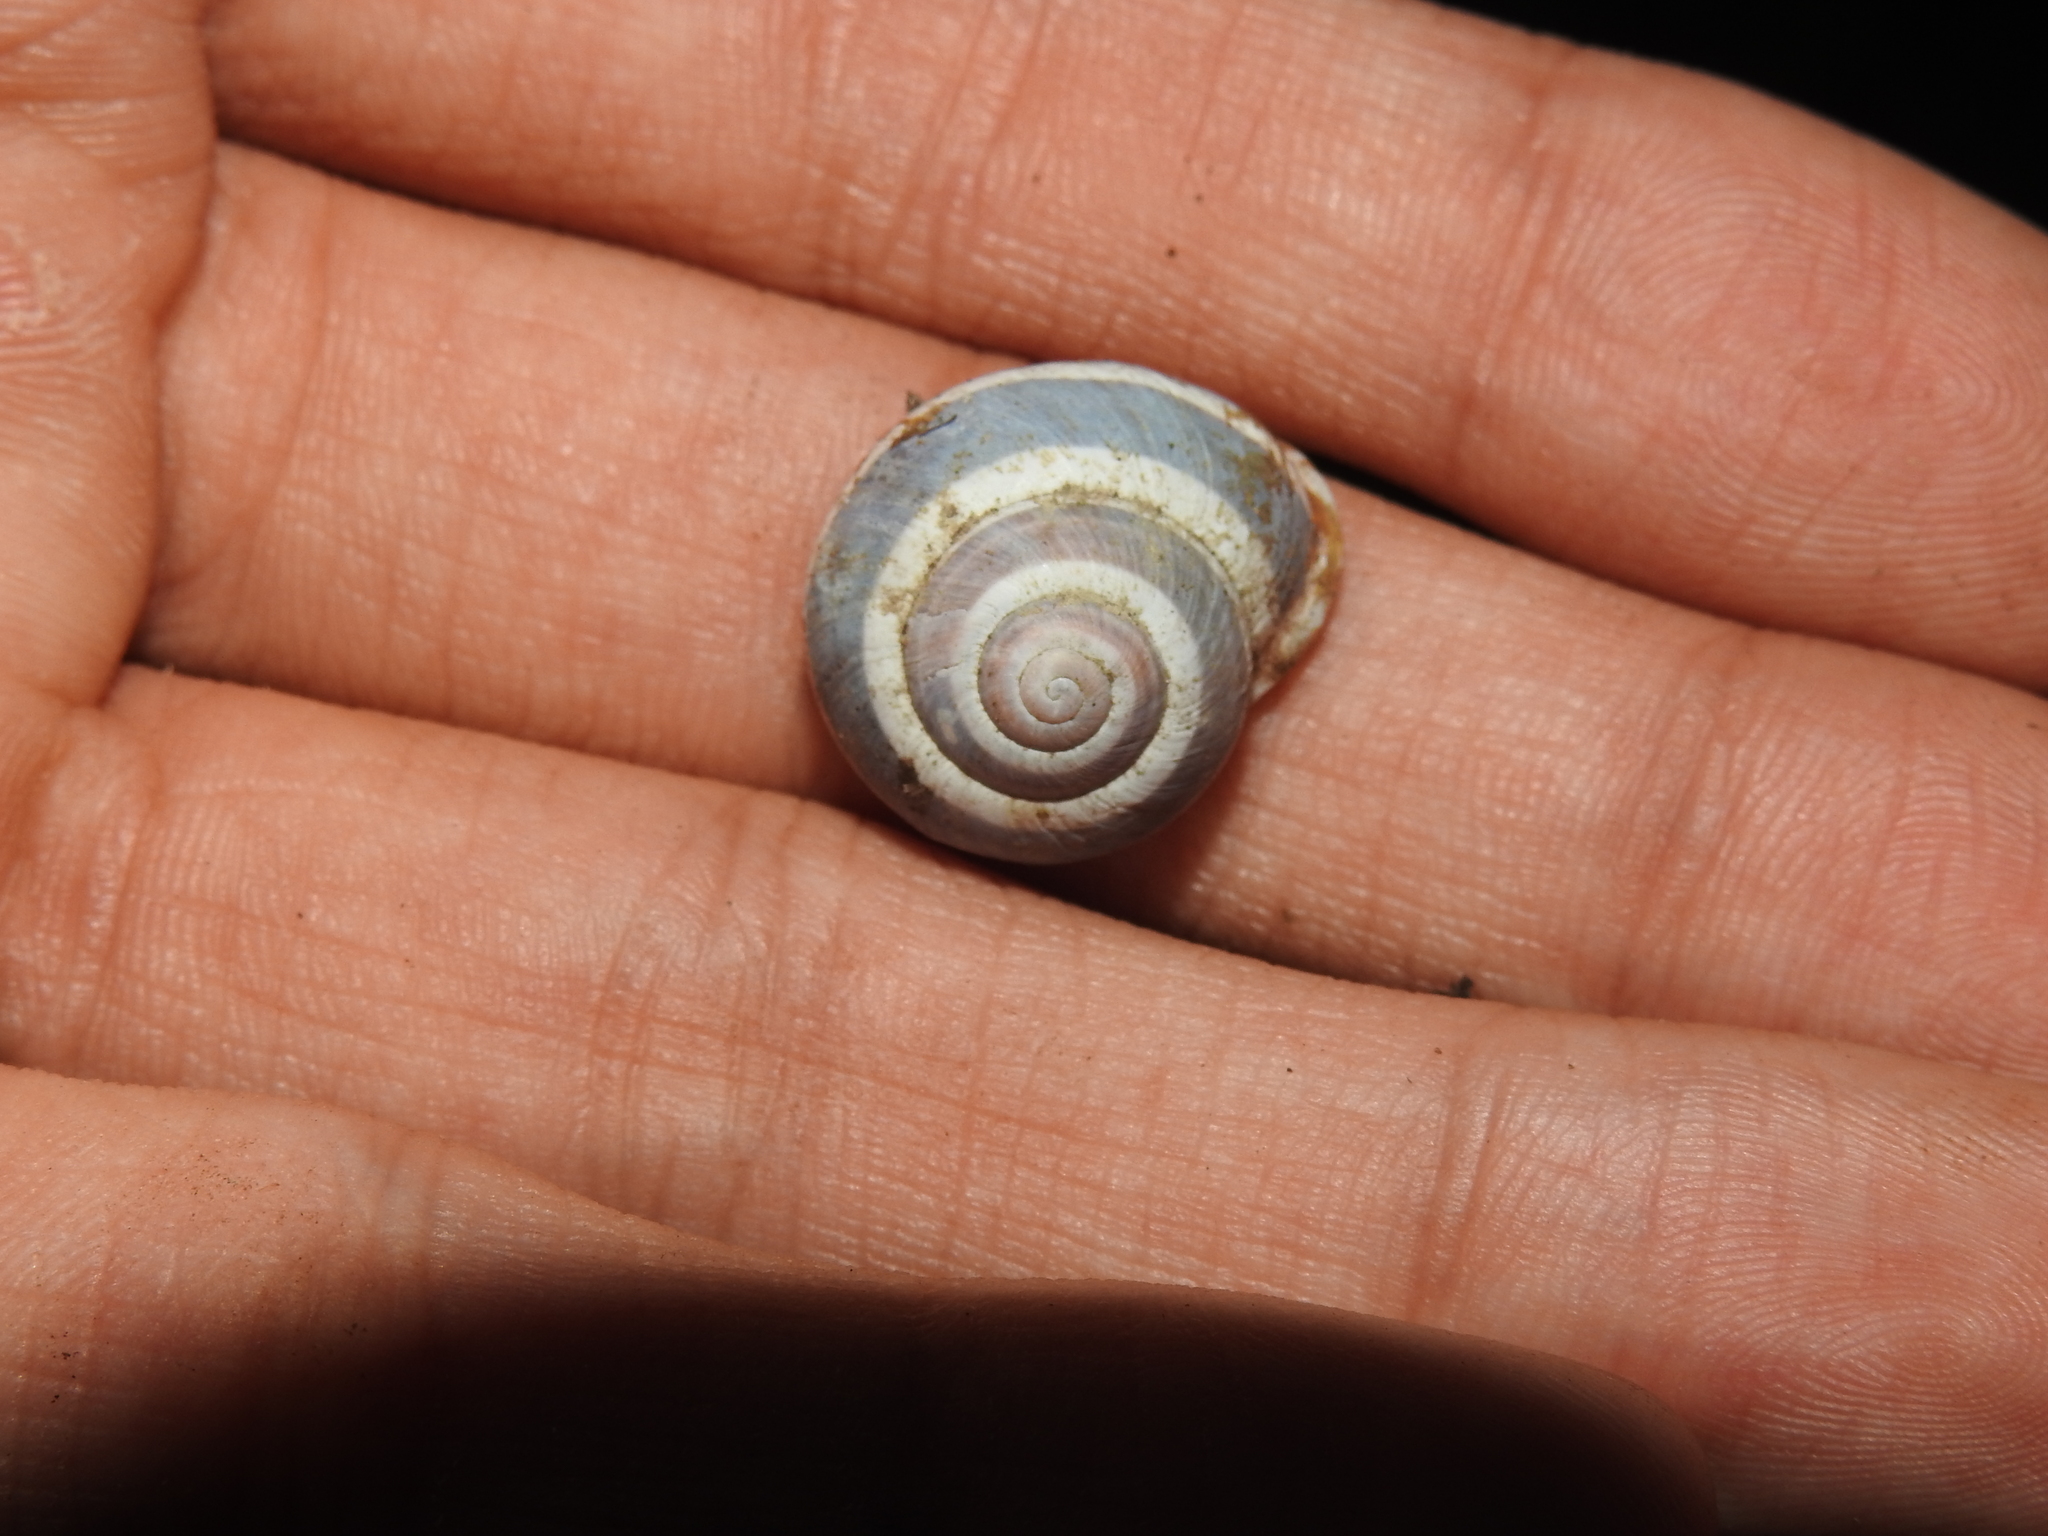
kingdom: Animalia
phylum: Mollusca
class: Gastropoda
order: Stylommatophora
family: Helicidae
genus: Cepaea
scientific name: Cepaea hortensis
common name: White-lip gardensnail
